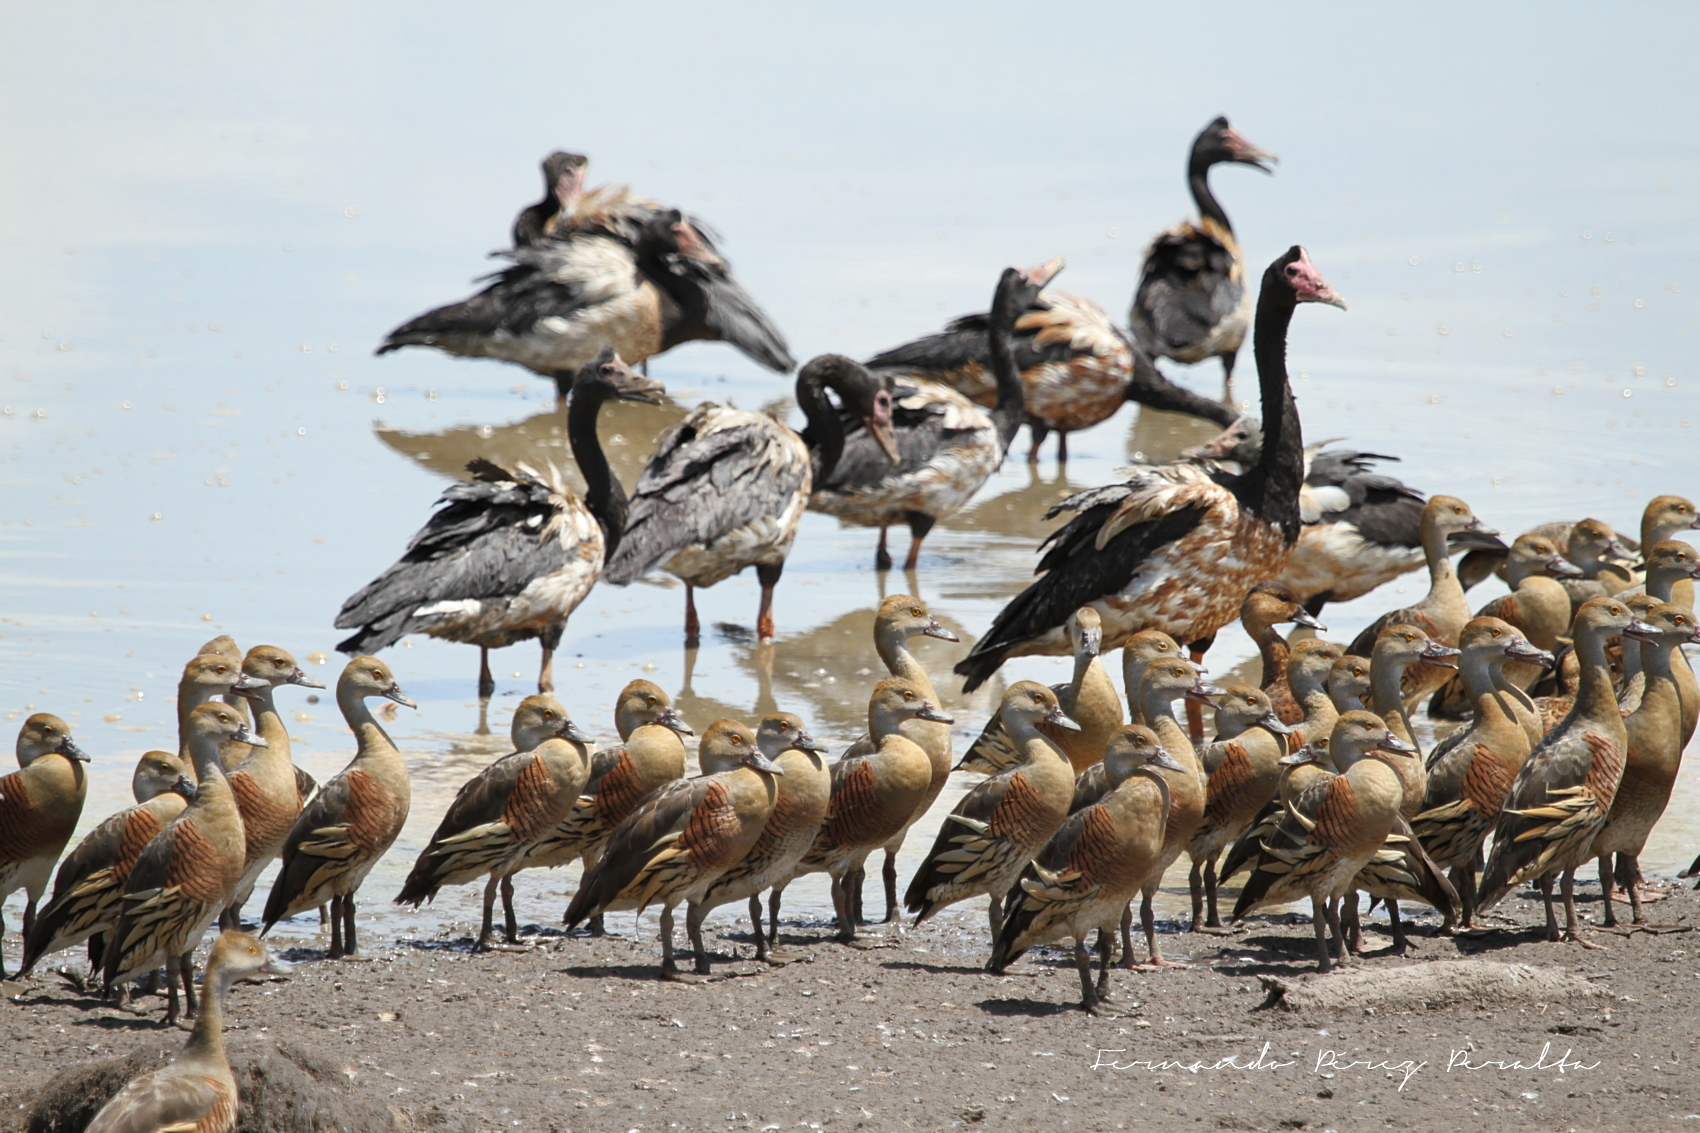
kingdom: Animalia
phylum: Chordata
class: Aves
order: Anseriformes
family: Anatidae
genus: Dendrocygna
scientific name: Dendrocygna eytoni
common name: Plumed whistling-duck
